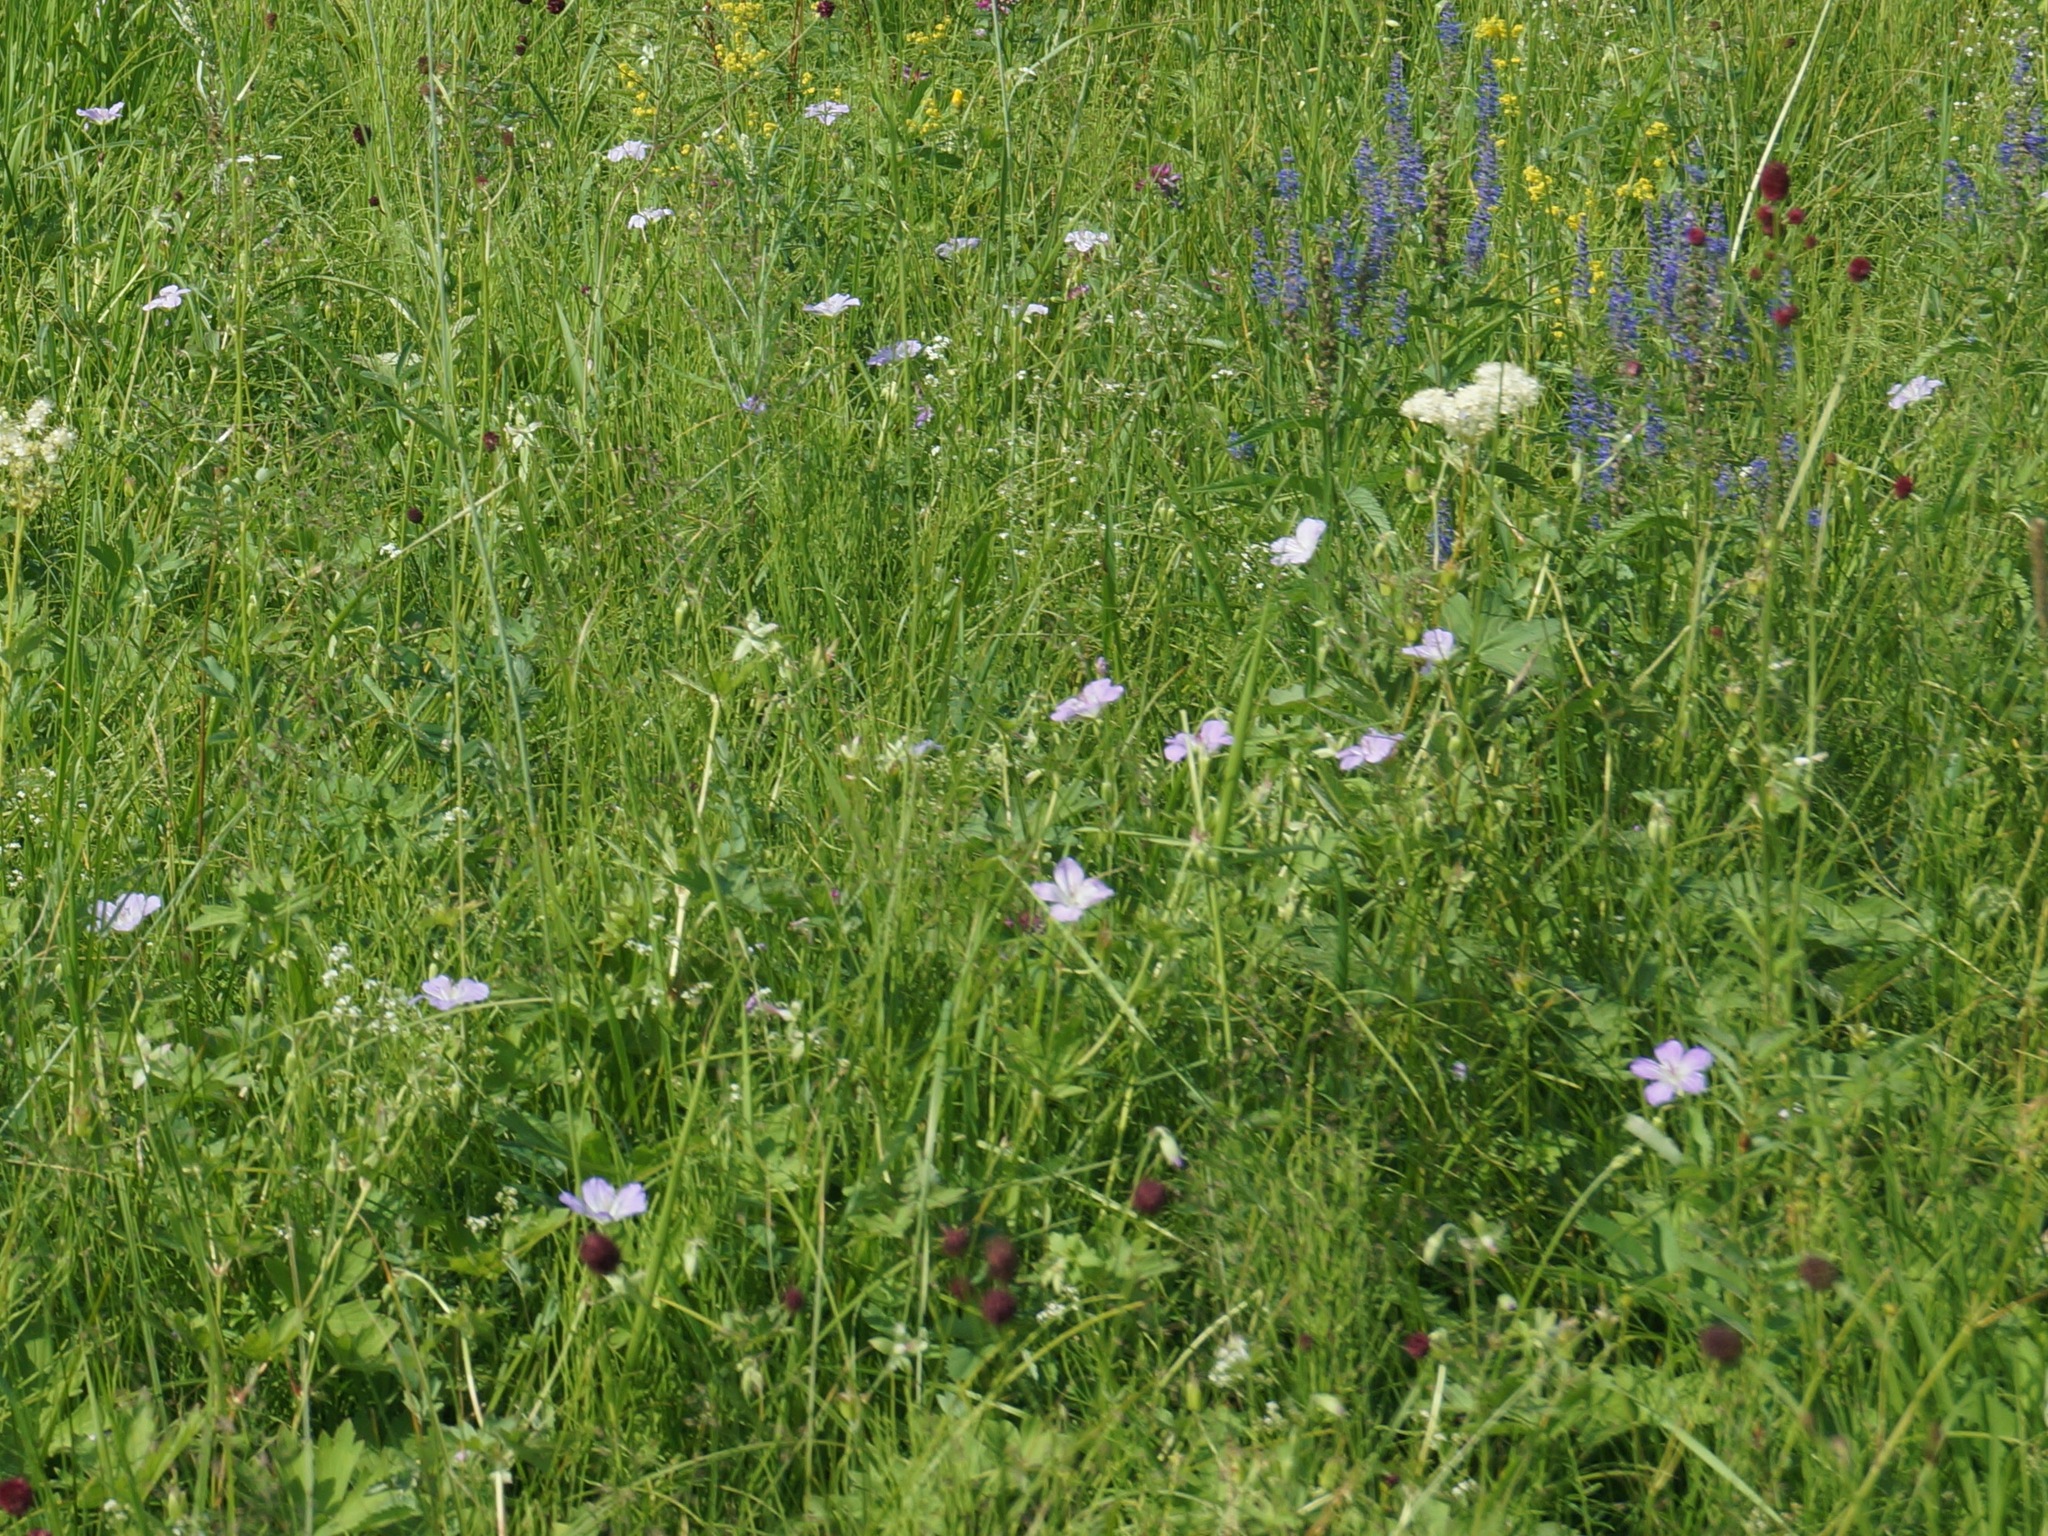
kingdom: Plantae
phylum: Tracheophyta
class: Magnoliopsida
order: Geraniales
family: Geraniaceae
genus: Geranium
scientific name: Geranium wlassovianum
